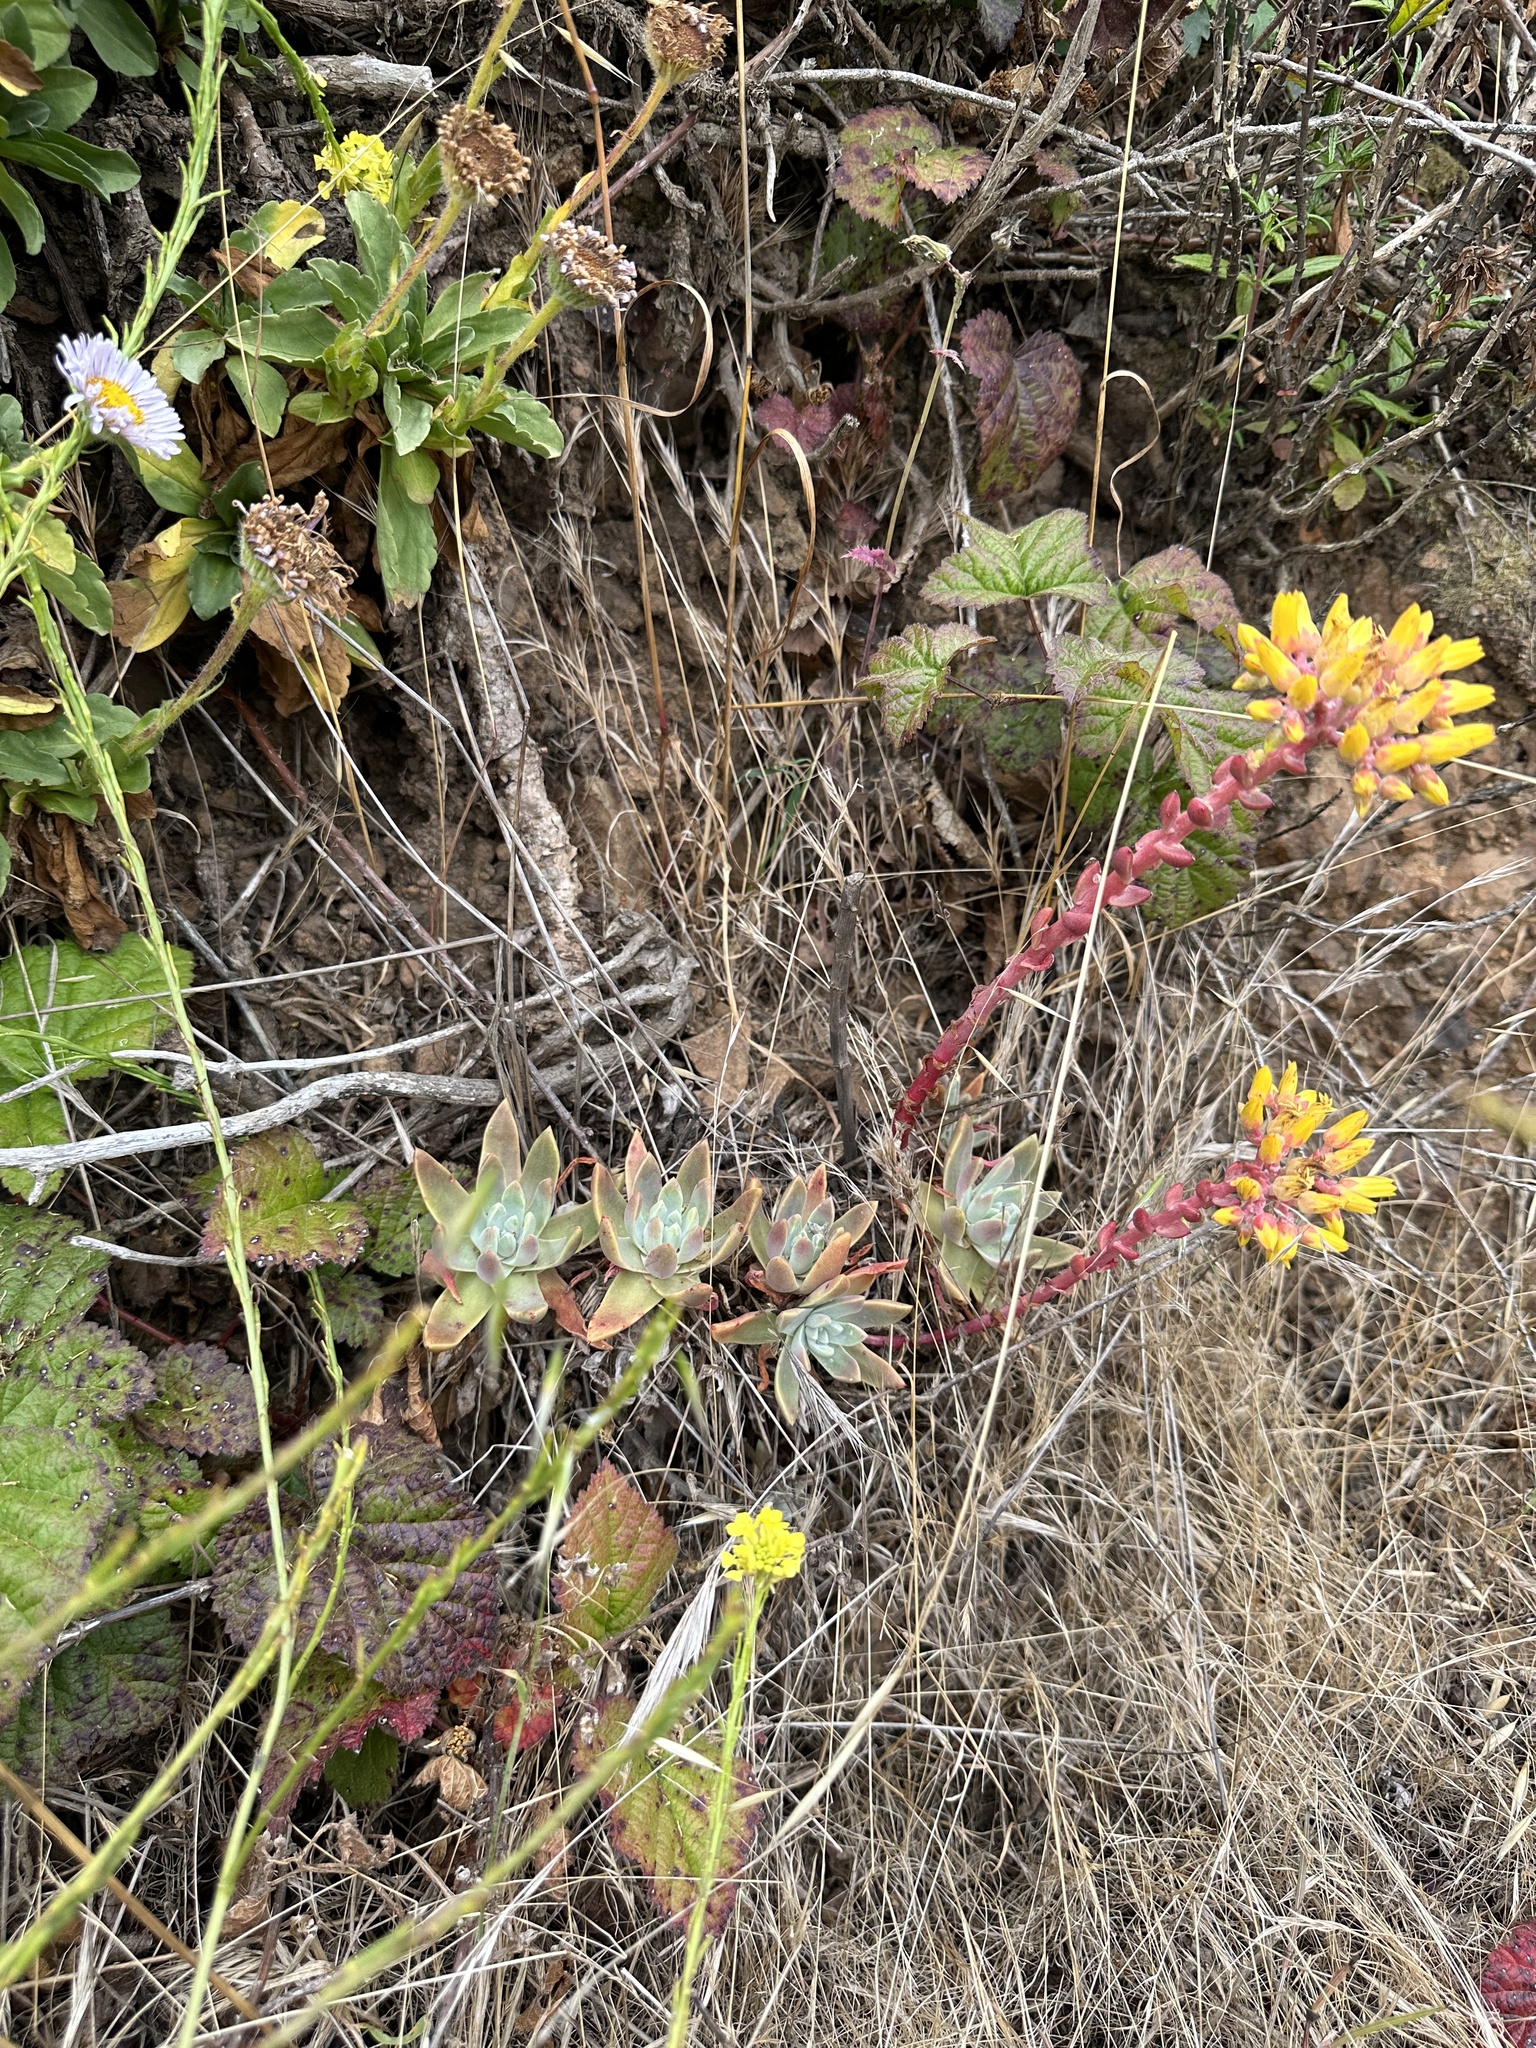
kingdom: Plantae
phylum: Tracheophyta
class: Magnoliopsida
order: Saxifragales
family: Crassulaceae
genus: Dudleya
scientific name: Dudleya caespitosa
